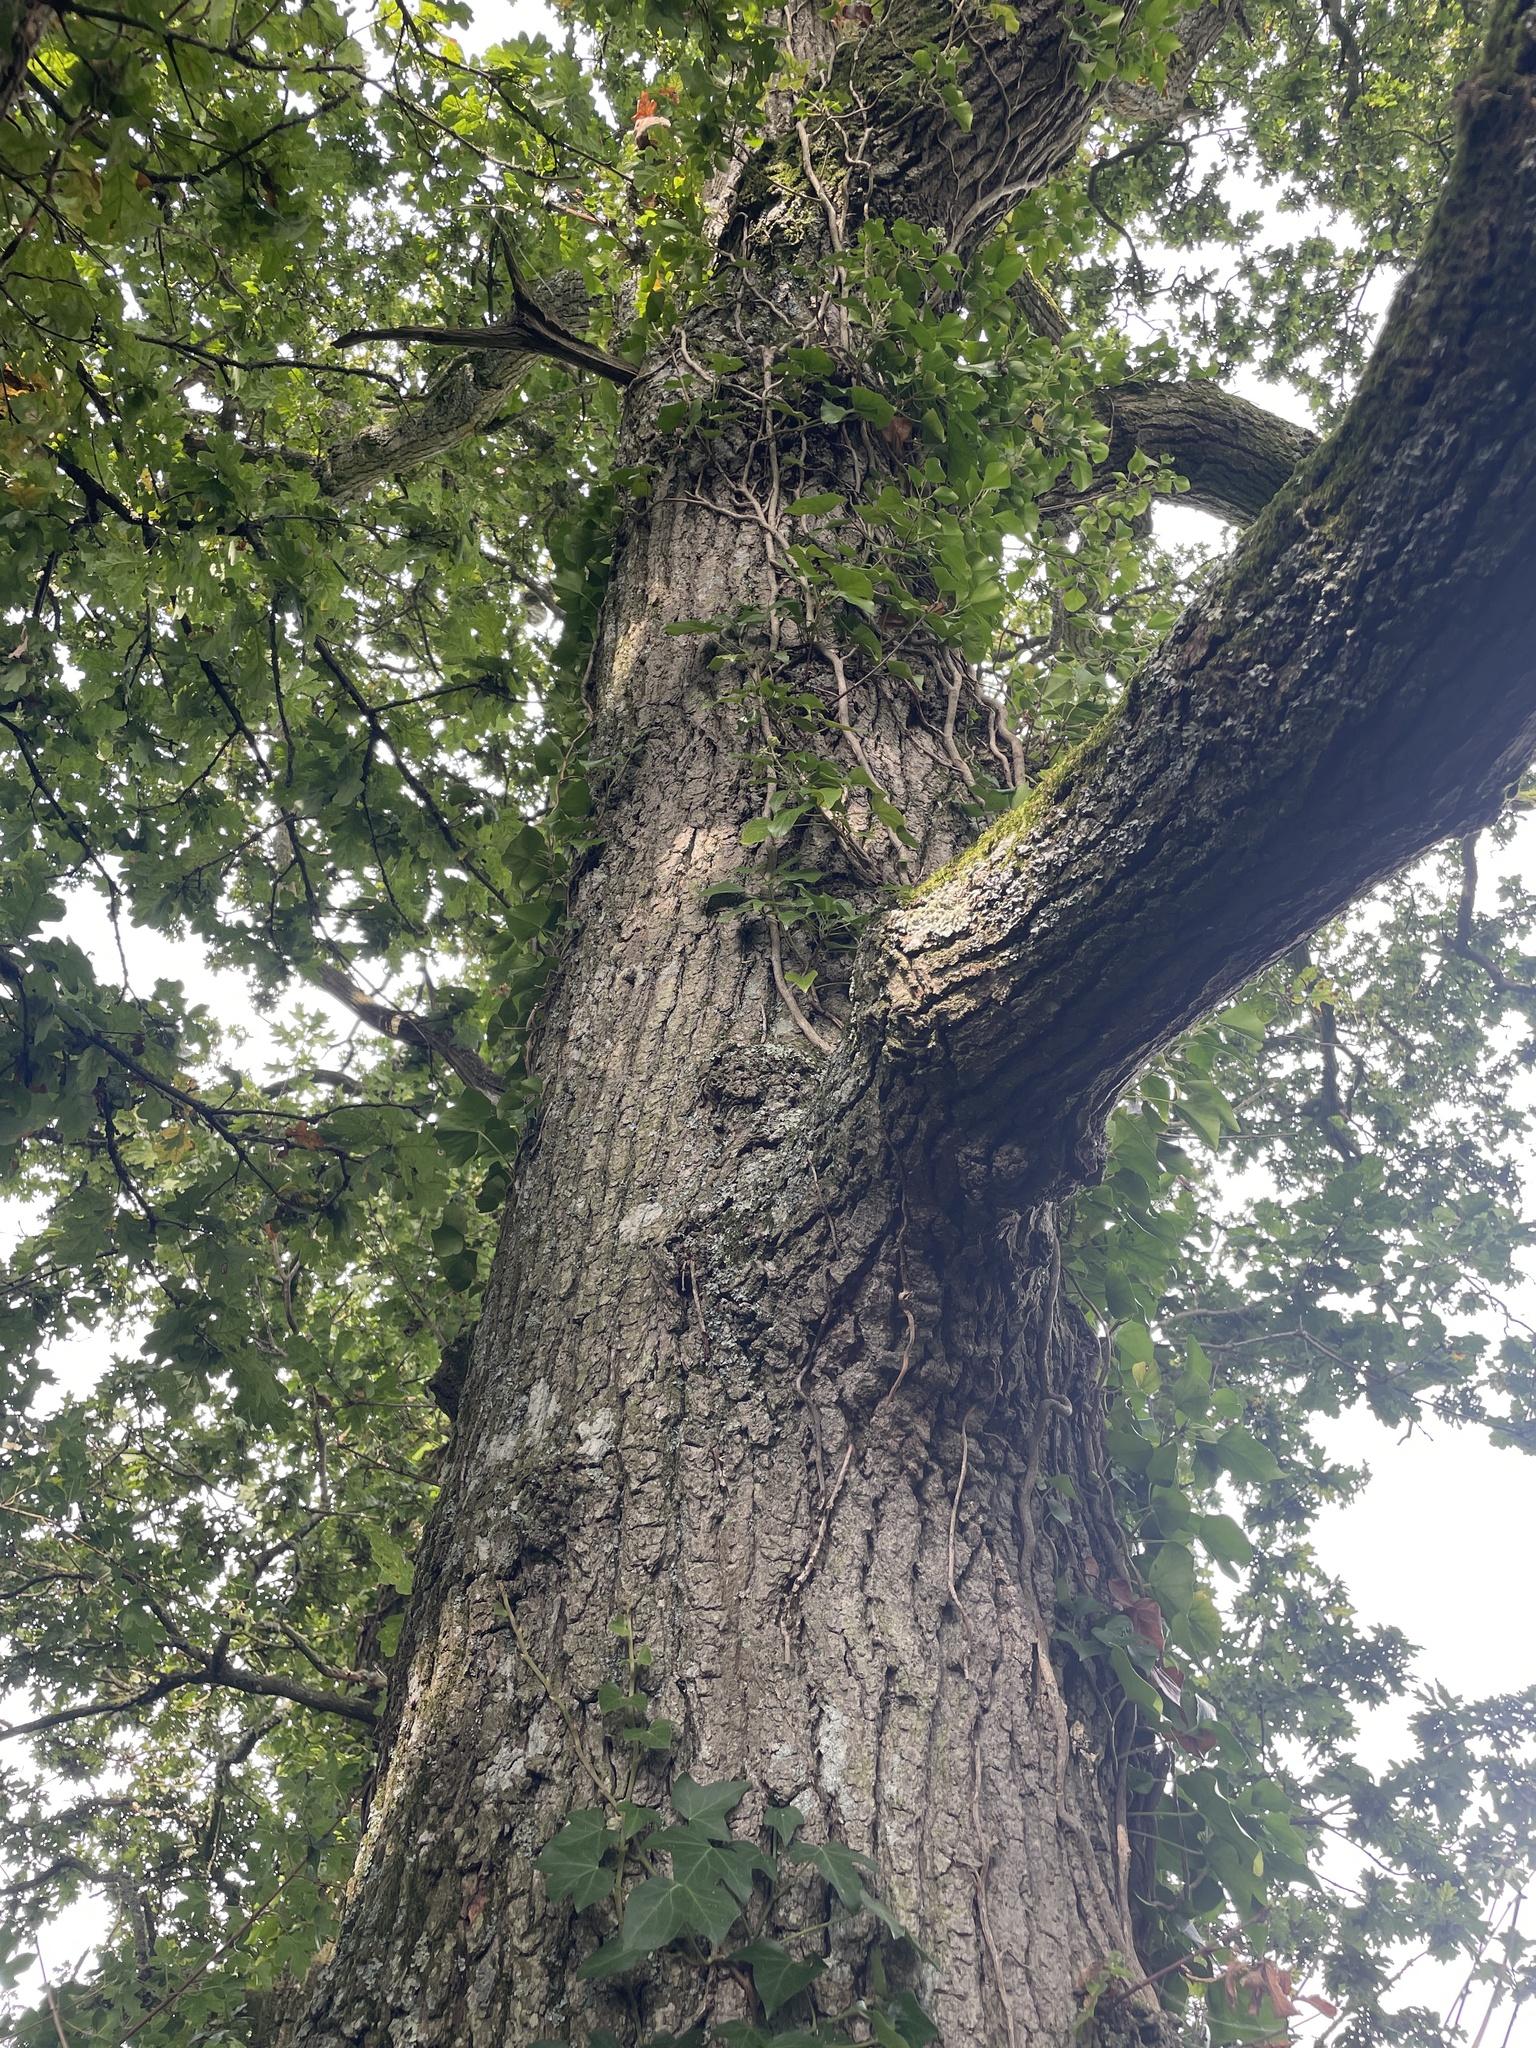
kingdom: Plantae
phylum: Tracheophyta
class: Magnoliopsida
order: Fagales
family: Fagaceae
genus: Quercus
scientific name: Quercus robur
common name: Pedunculate oak
